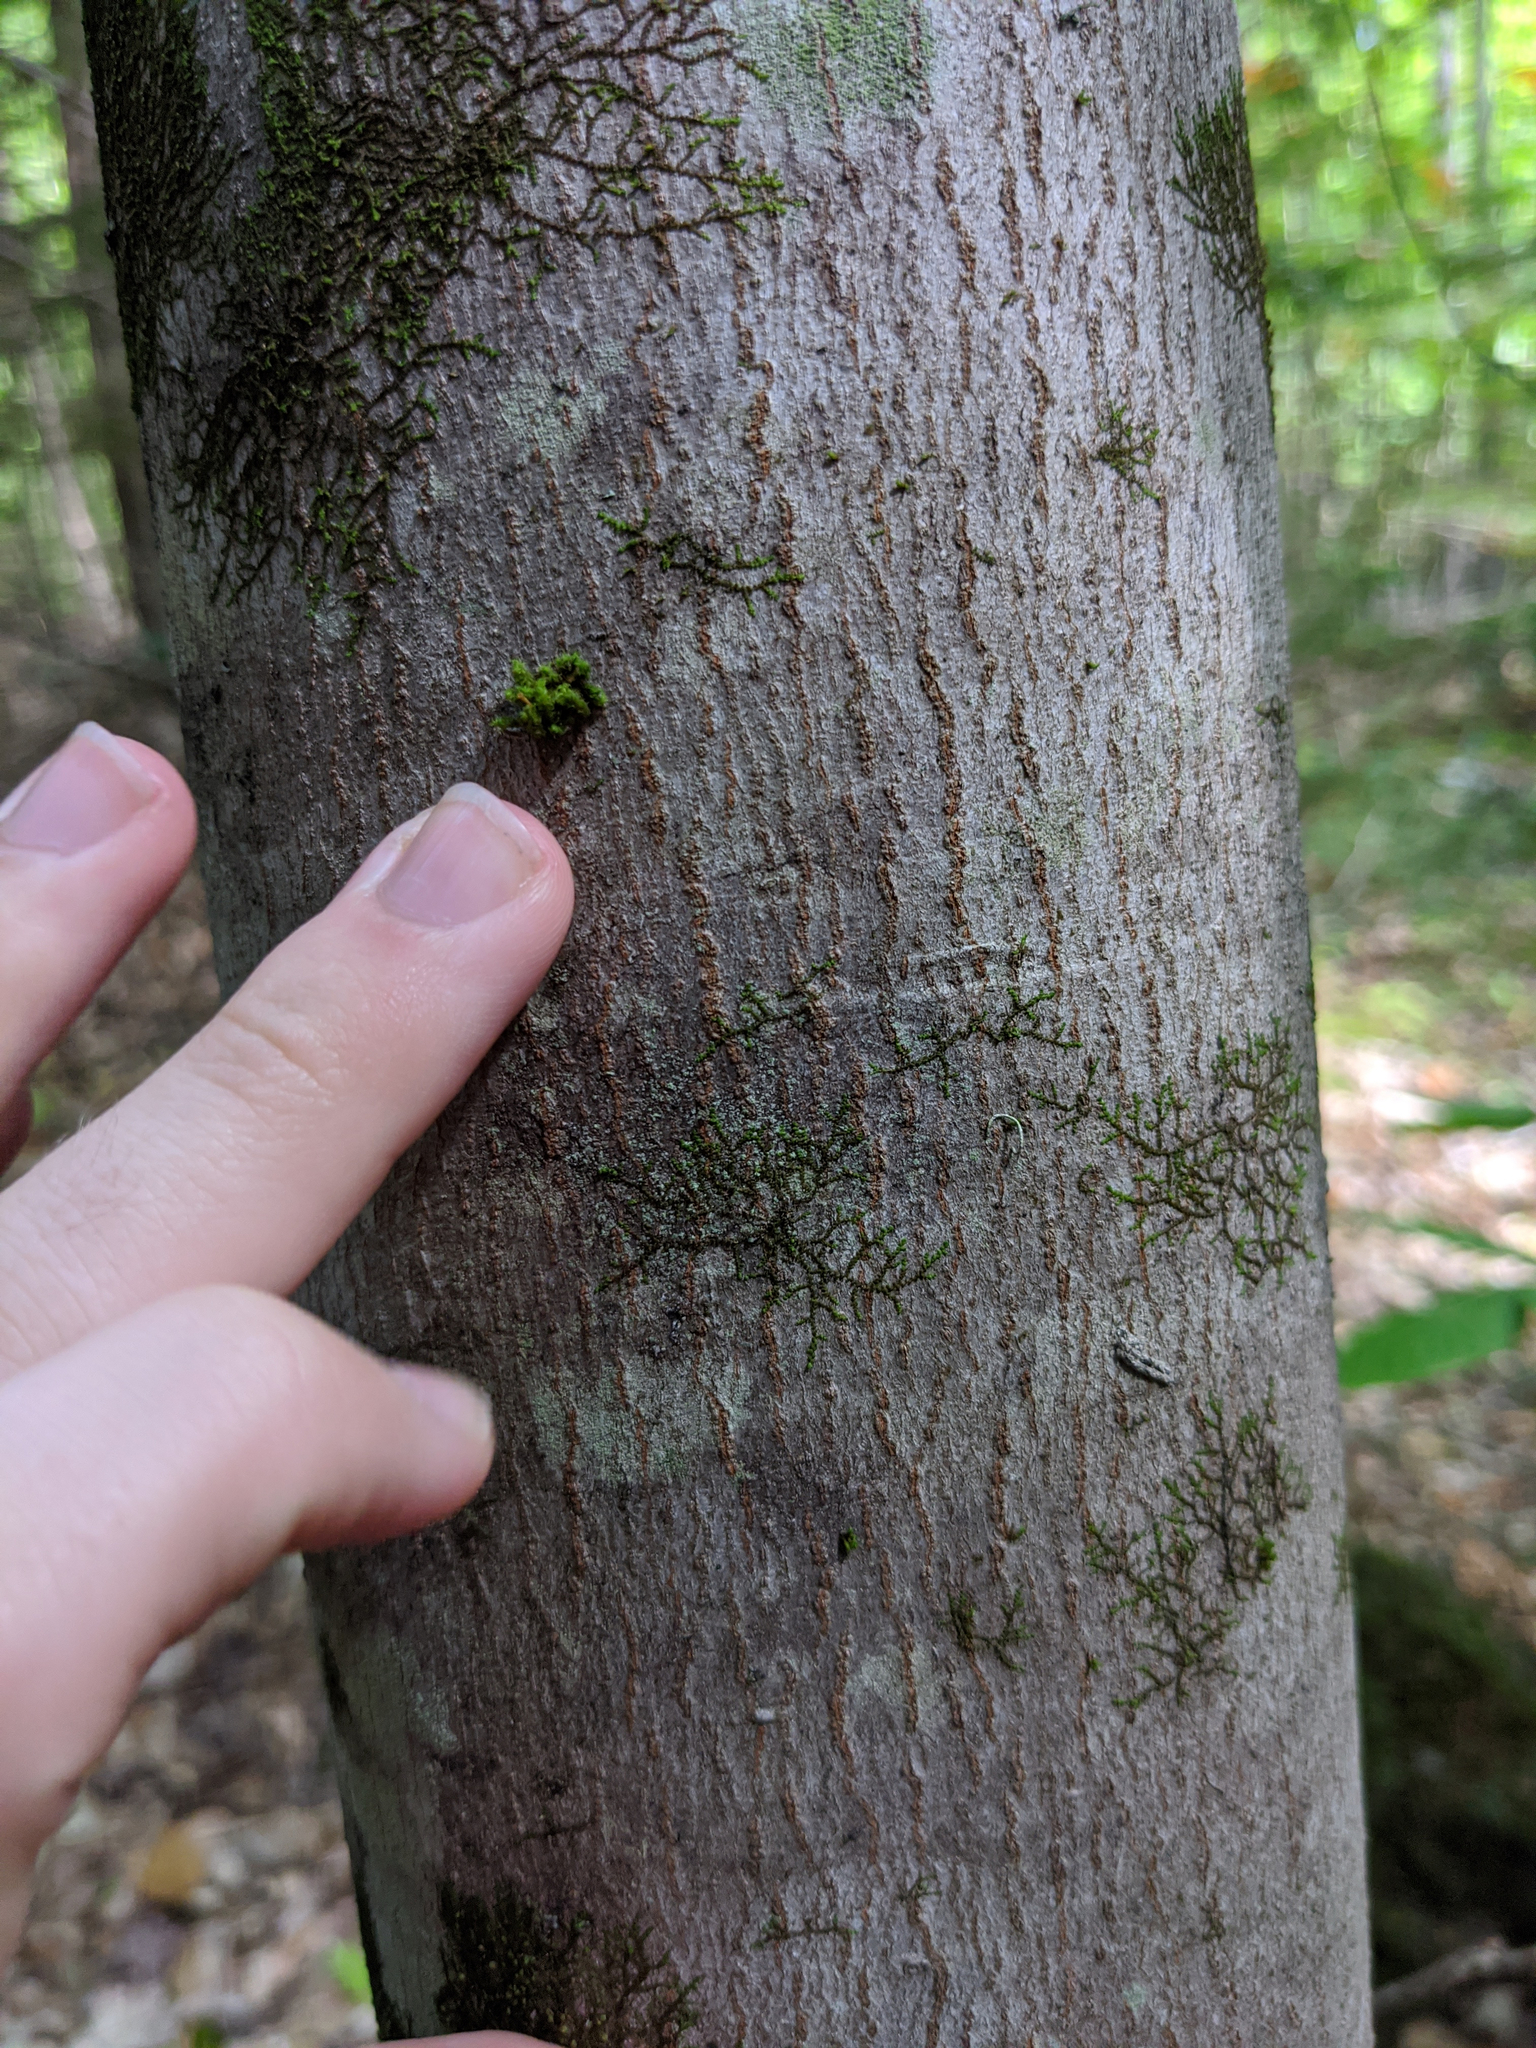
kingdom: Plantae
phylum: Bryophyta
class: Bryopsida
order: Orthotrichales
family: Orthotrichaceae
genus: Ulota
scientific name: Ulota crispa
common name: Crisped pincushion moss
